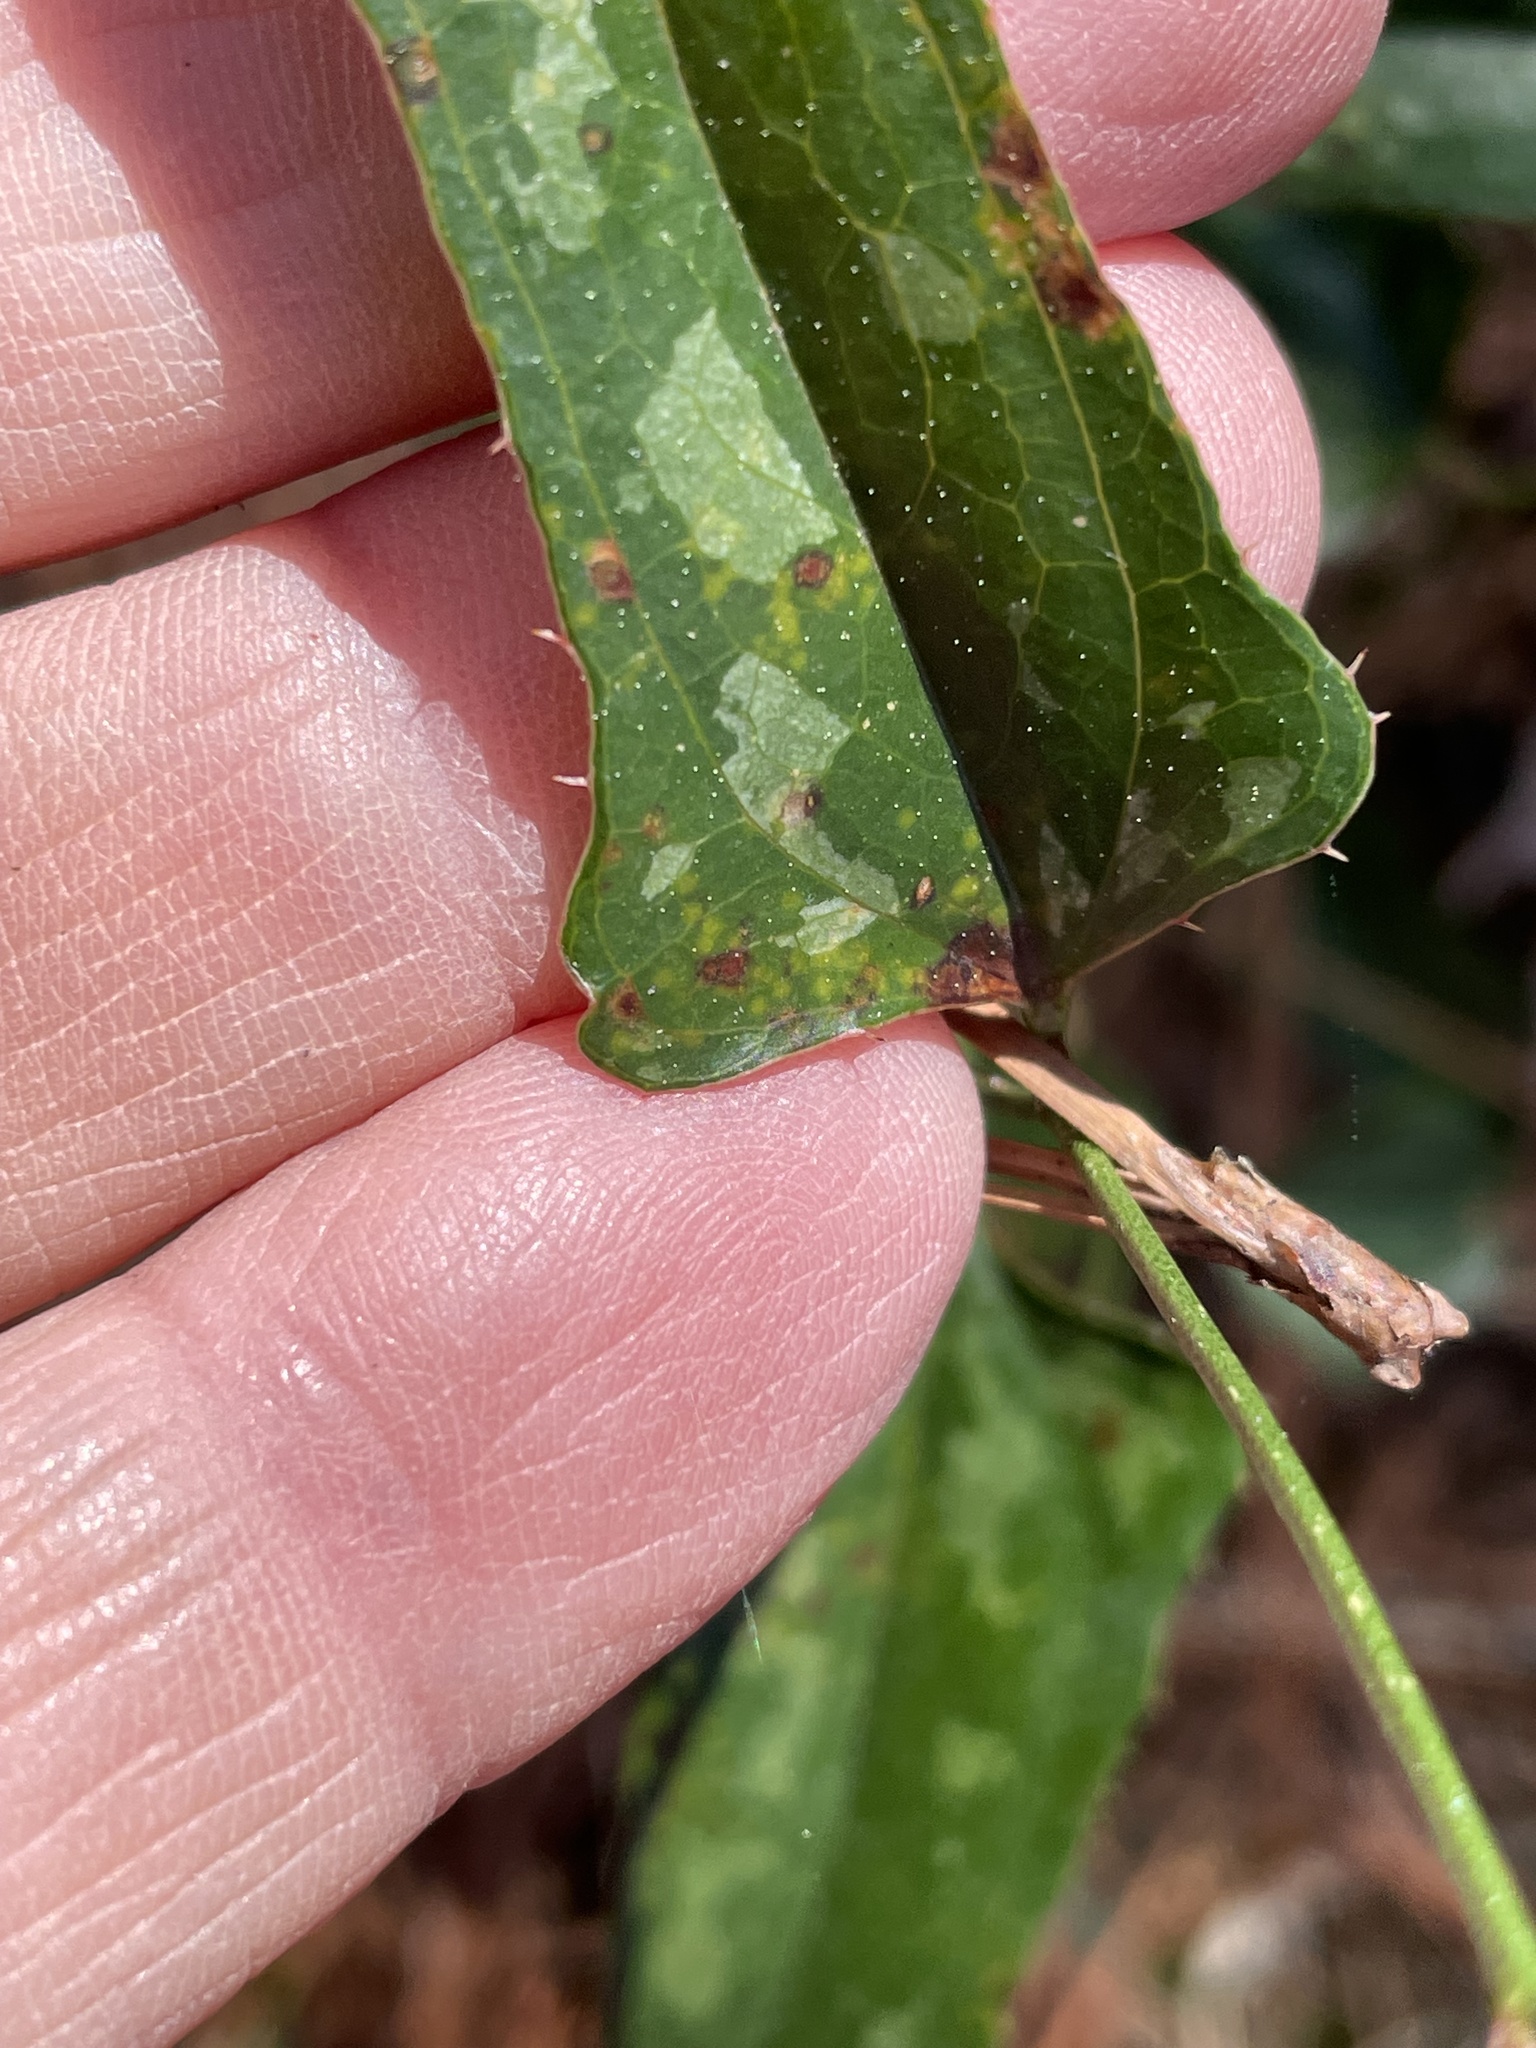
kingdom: Plantae
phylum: Tracheophyta
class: Liliopsida
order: Liliales
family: Smilacaceae
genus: Smilax
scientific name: Smilax bona-nox
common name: Catbrier
